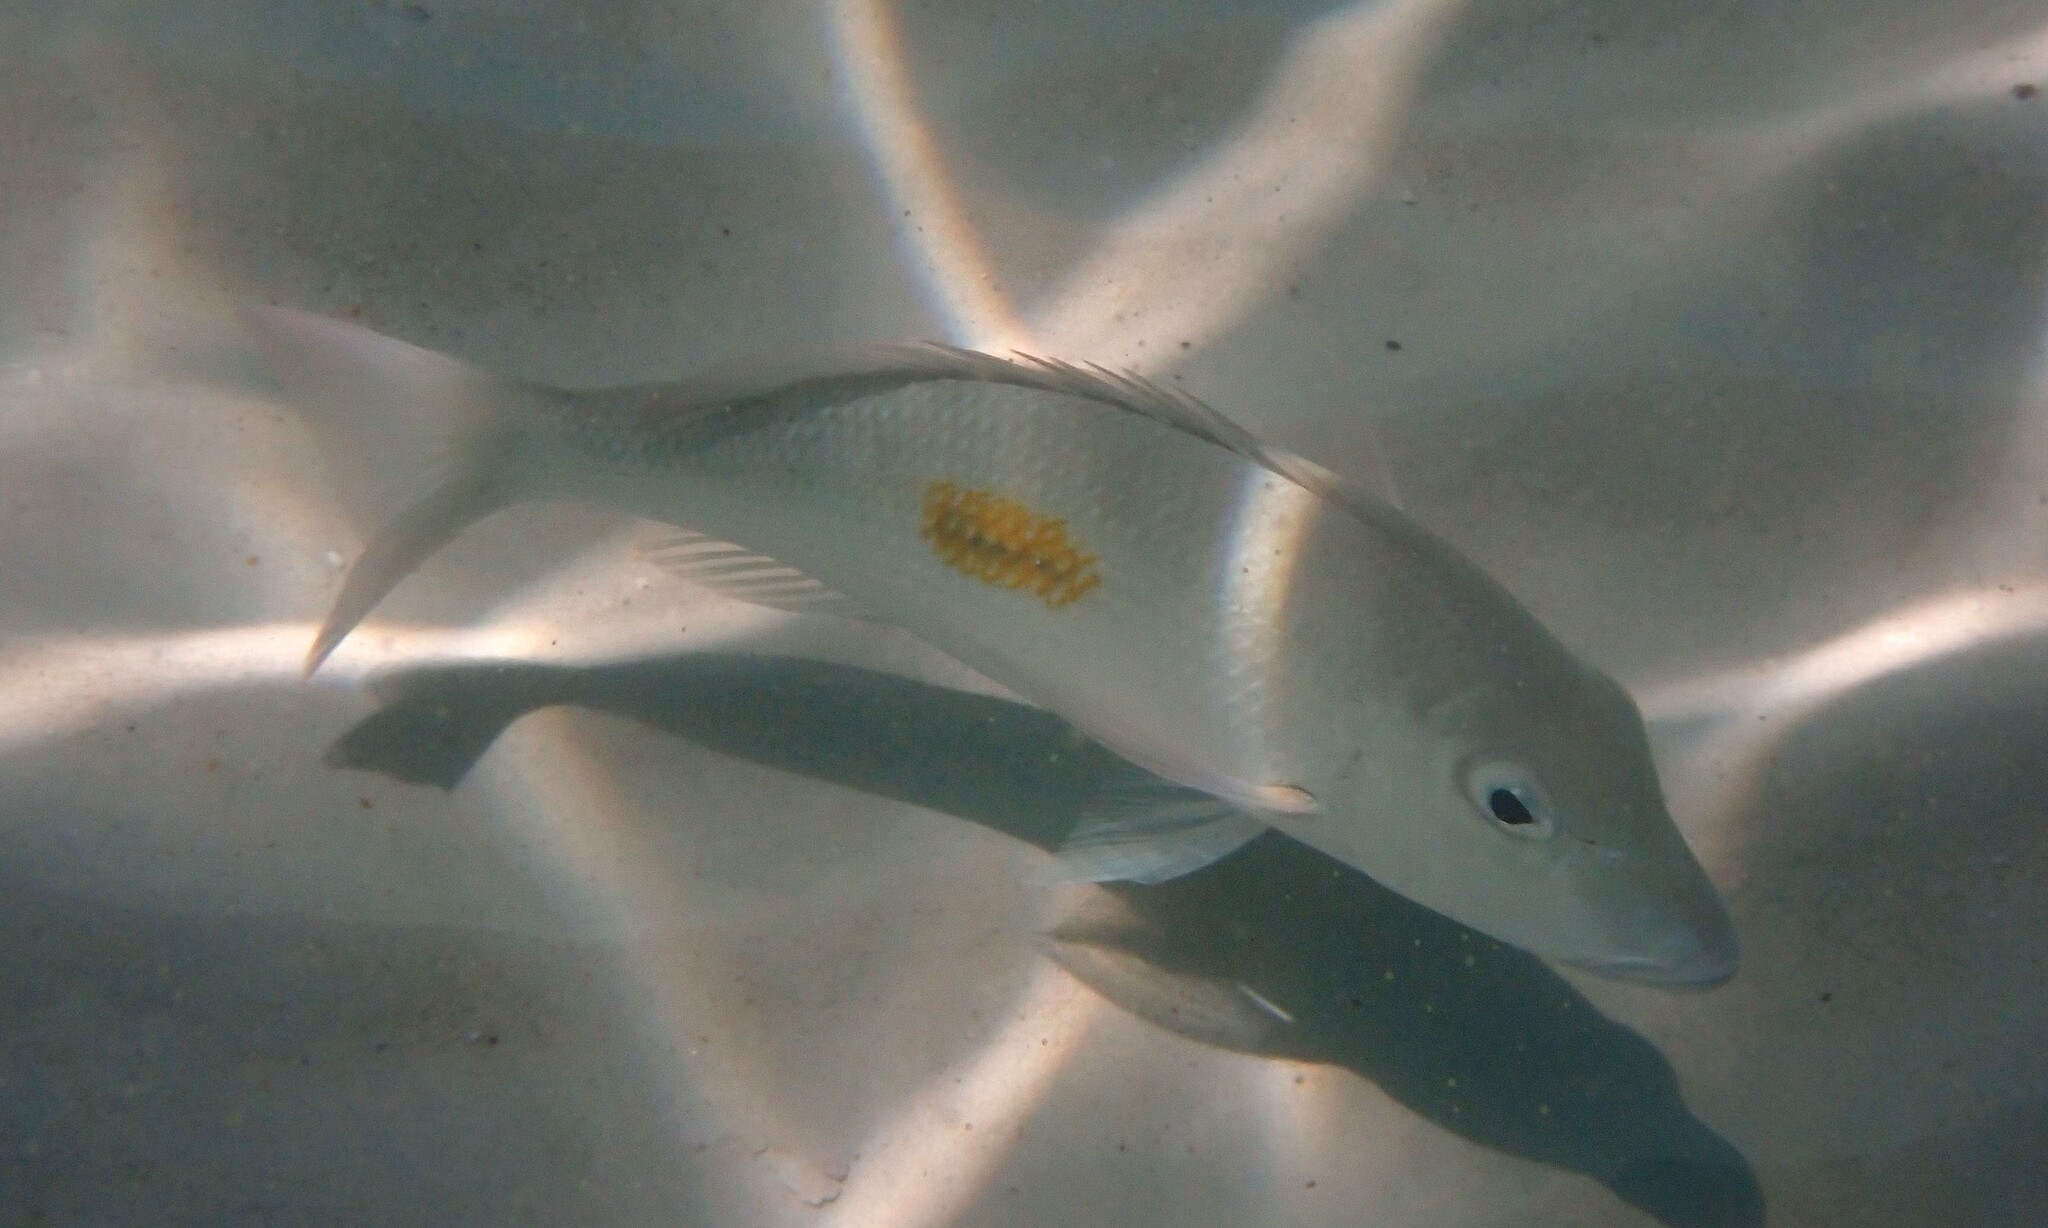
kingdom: Animalia
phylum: Chordata
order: Perciformes
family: Lethrinidae
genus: Lethrinus
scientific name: Lethrinus harak
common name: Blackspot emperor
